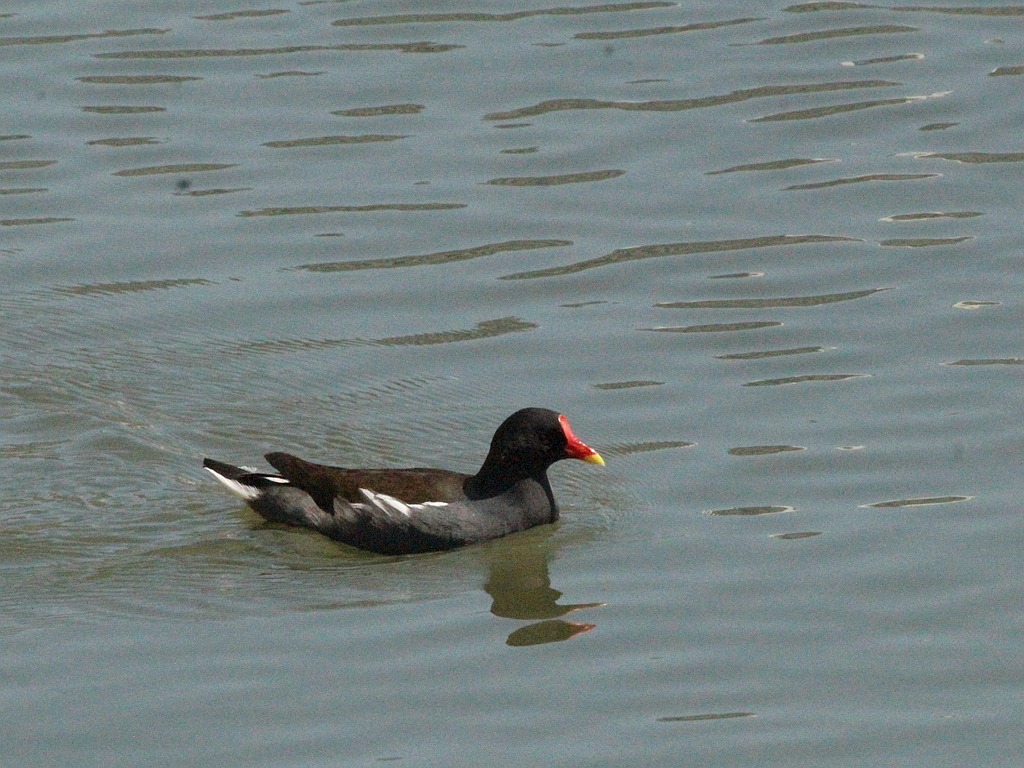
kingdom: Animalia
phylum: Chordata
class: Aves
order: Gruiformes
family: Rallidae
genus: Gallinula
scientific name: Gallinula chloropus
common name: Common moorhen
